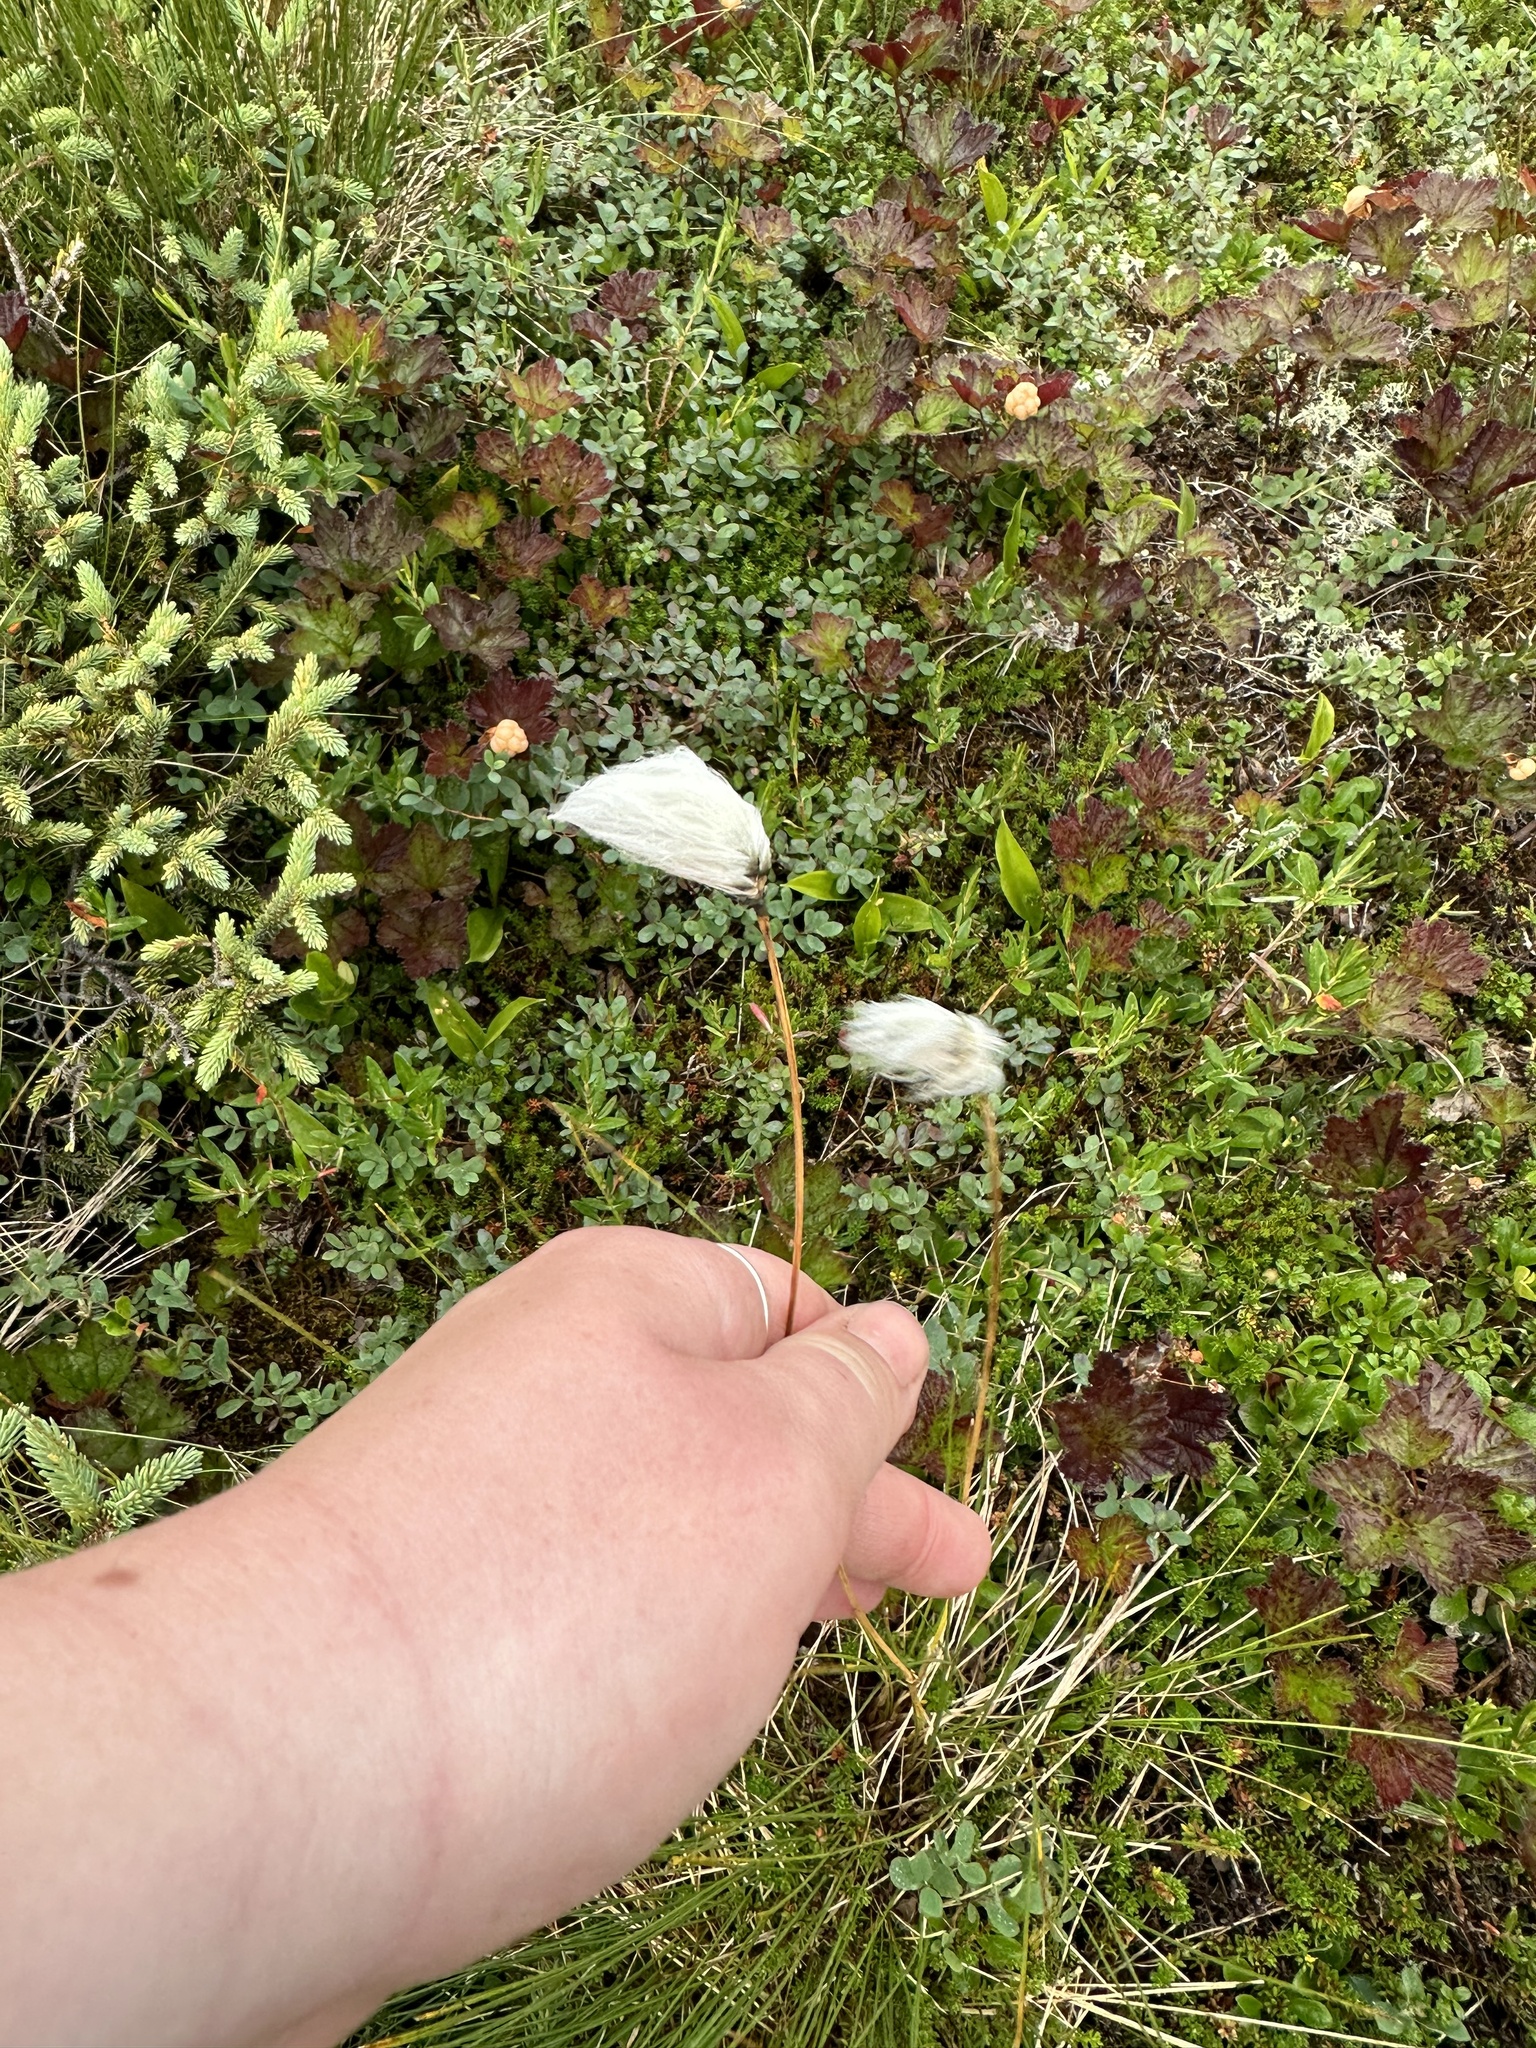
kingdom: Plantae
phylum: Tracheophyta
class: Liliopsida
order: Poales
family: Cyperaceae
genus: Eriophorum
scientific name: Eriophorum chamissonis
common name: Chamisso's cottongrass
